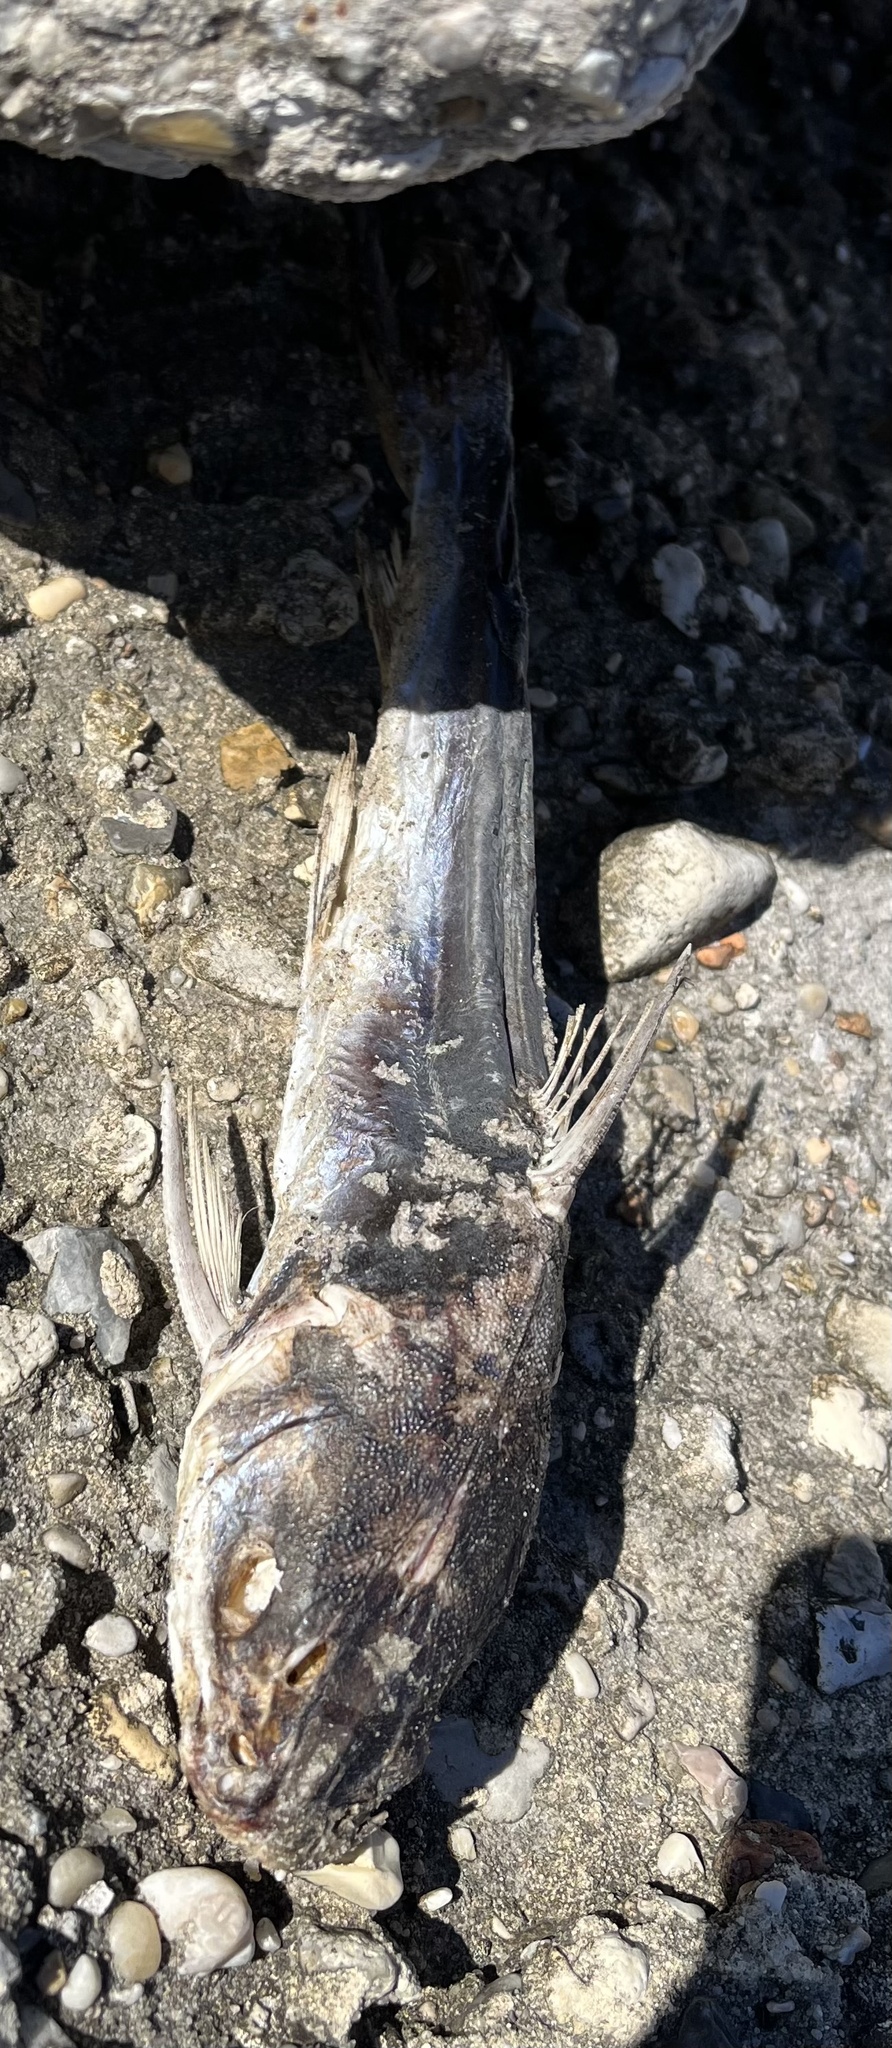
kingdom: Animalia
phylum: Chordata
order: Siluriformes
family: Ariidae
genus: Ariopsis
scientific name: Ariopsis felis
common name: Hardhead catfish
